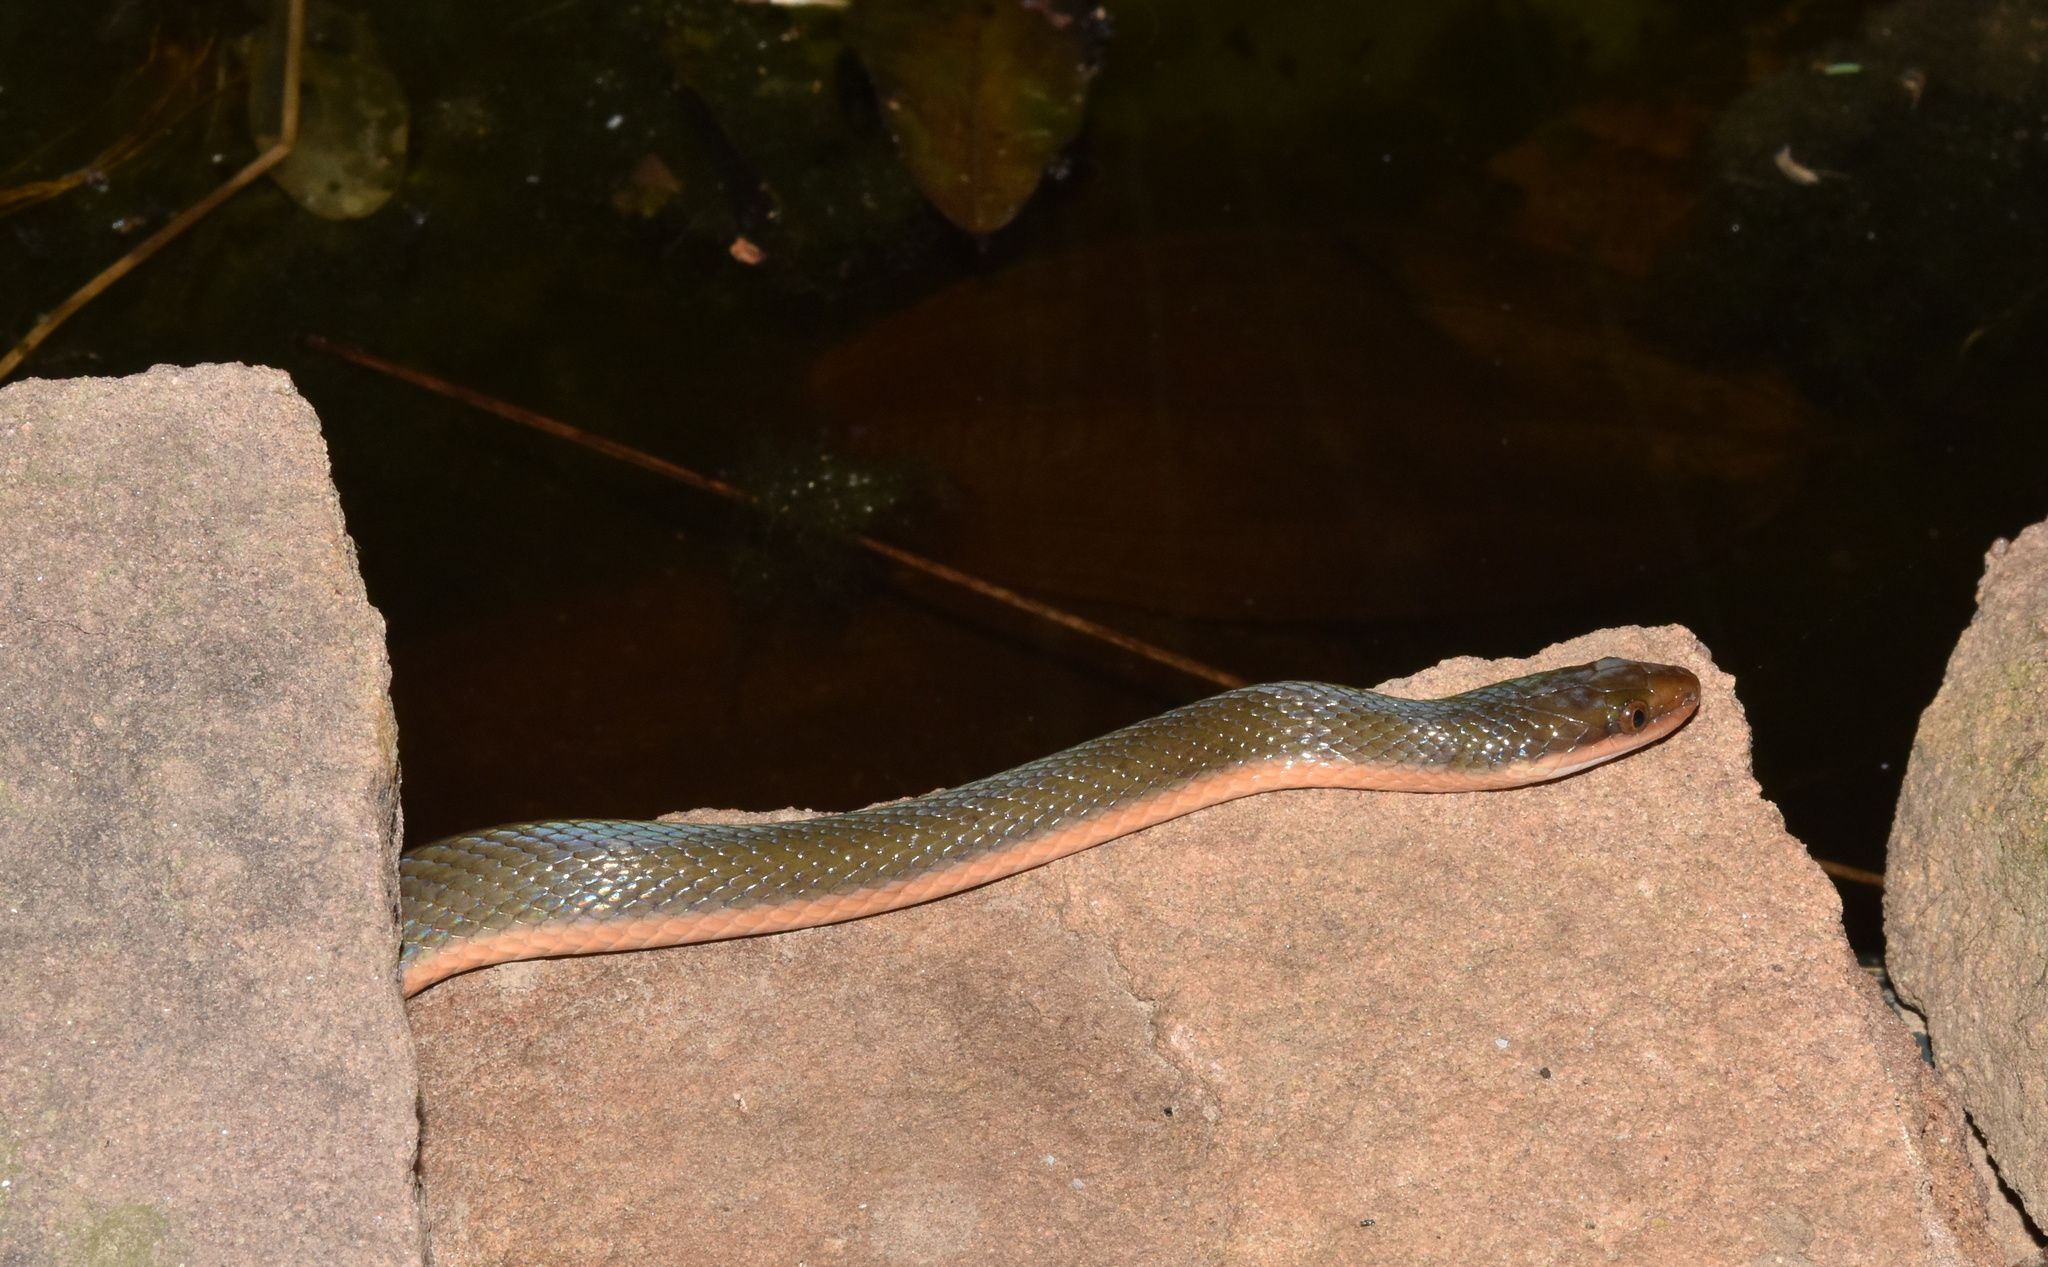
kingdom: Animalia
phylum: Chordata
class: Squamata
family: Lamprophiidae
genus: Lycodonomorphus
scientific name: Lycodonomorphus rufulus
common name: Brown water snake
